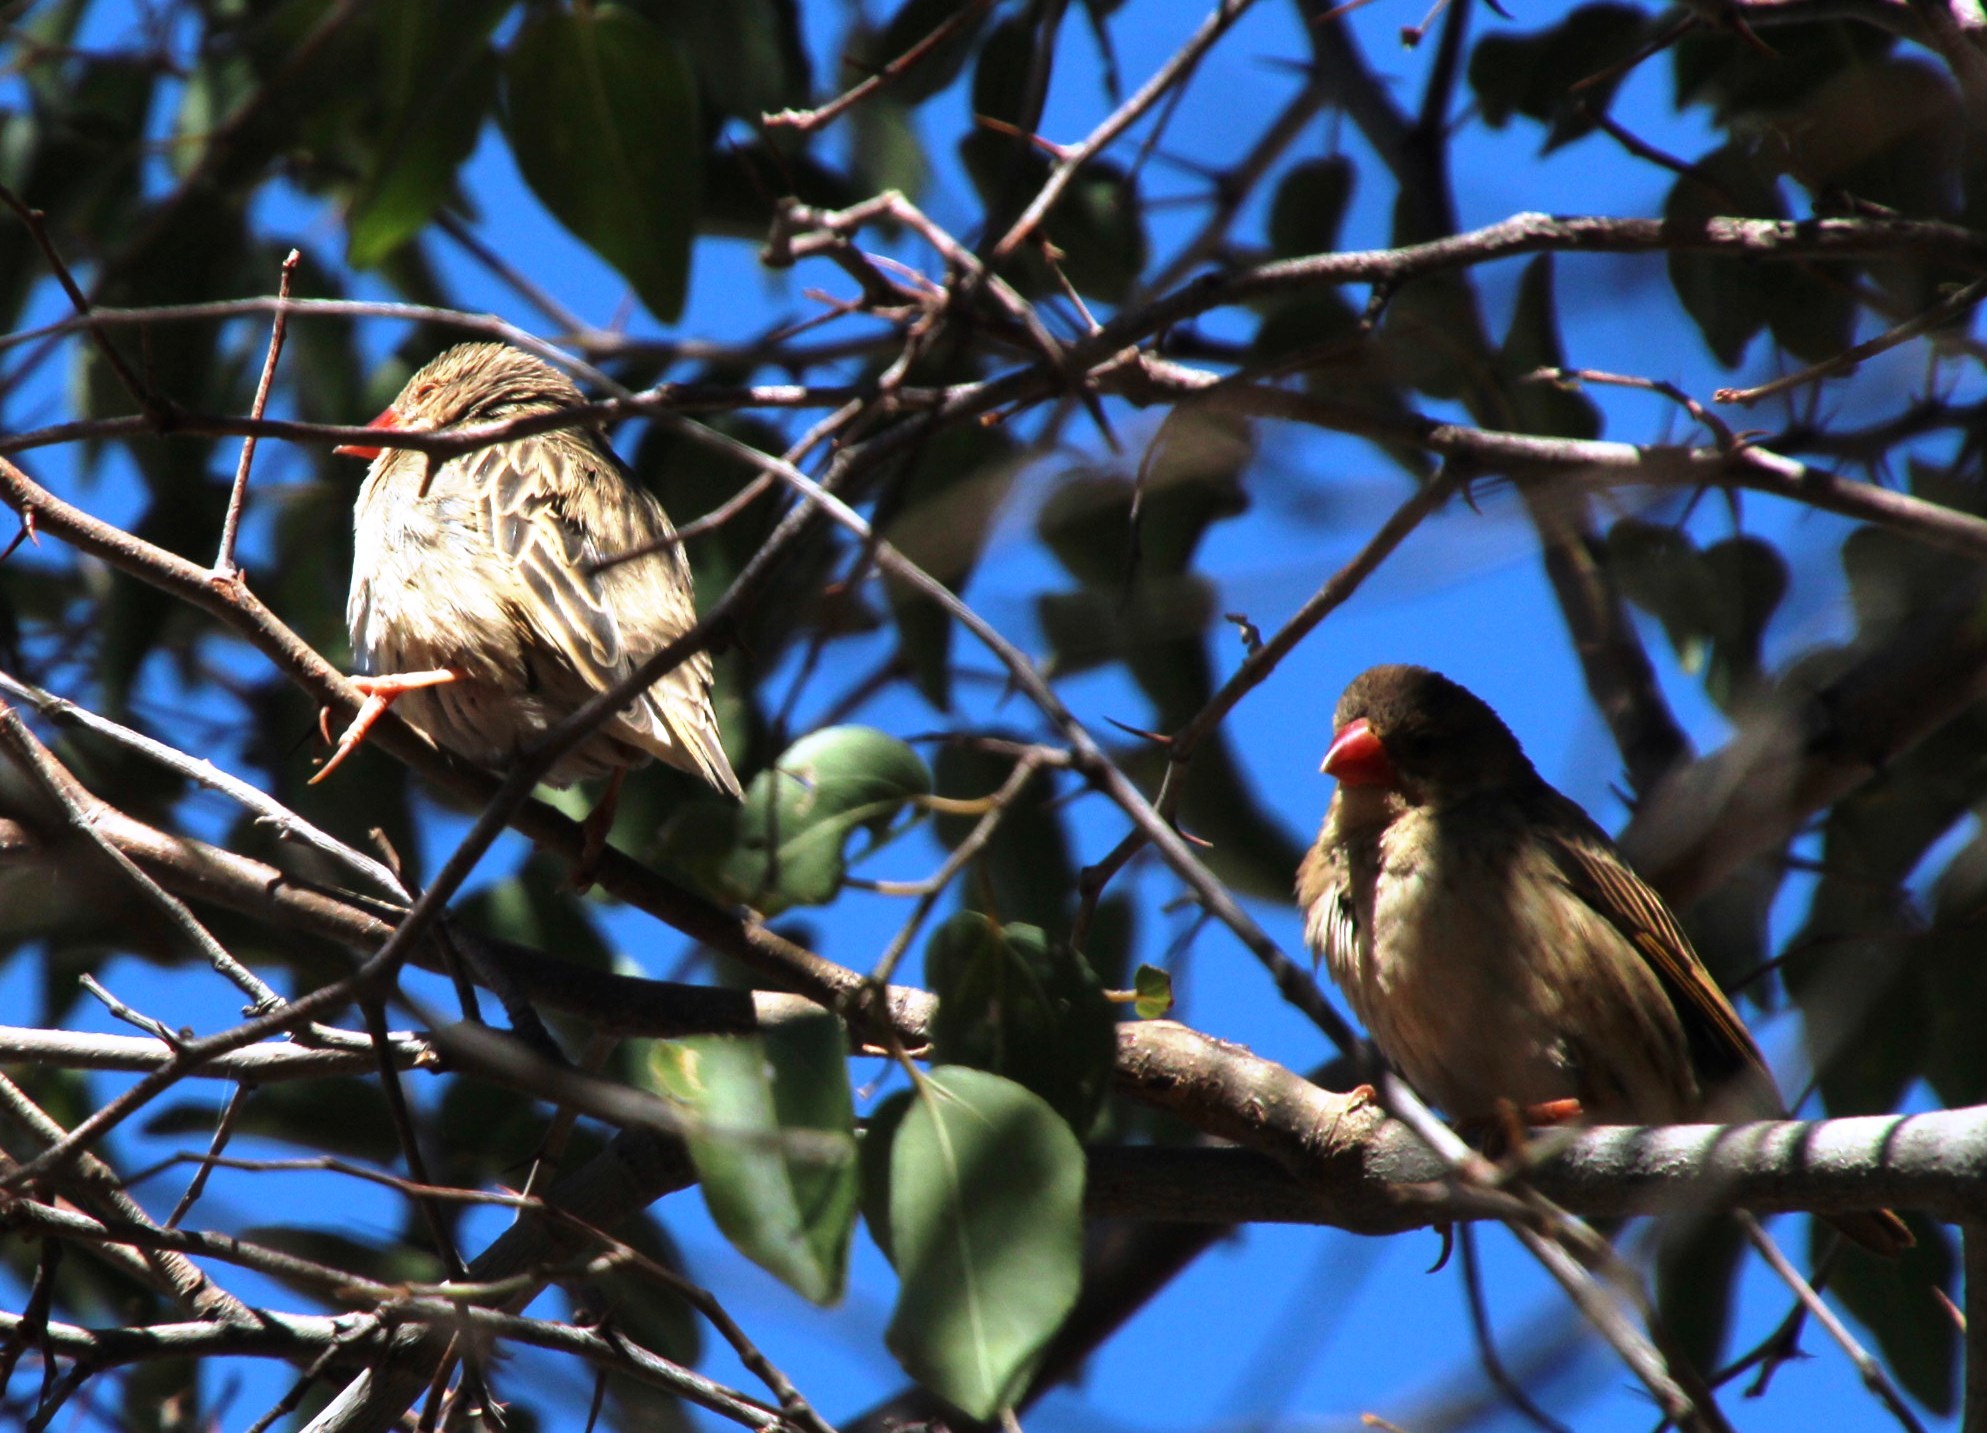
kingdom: Animalia
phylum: Chordata
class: Aves
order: Passeriformes
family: Ploceidae
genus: Quelea
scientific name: Quelea quelea
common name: Red-billed quelea
